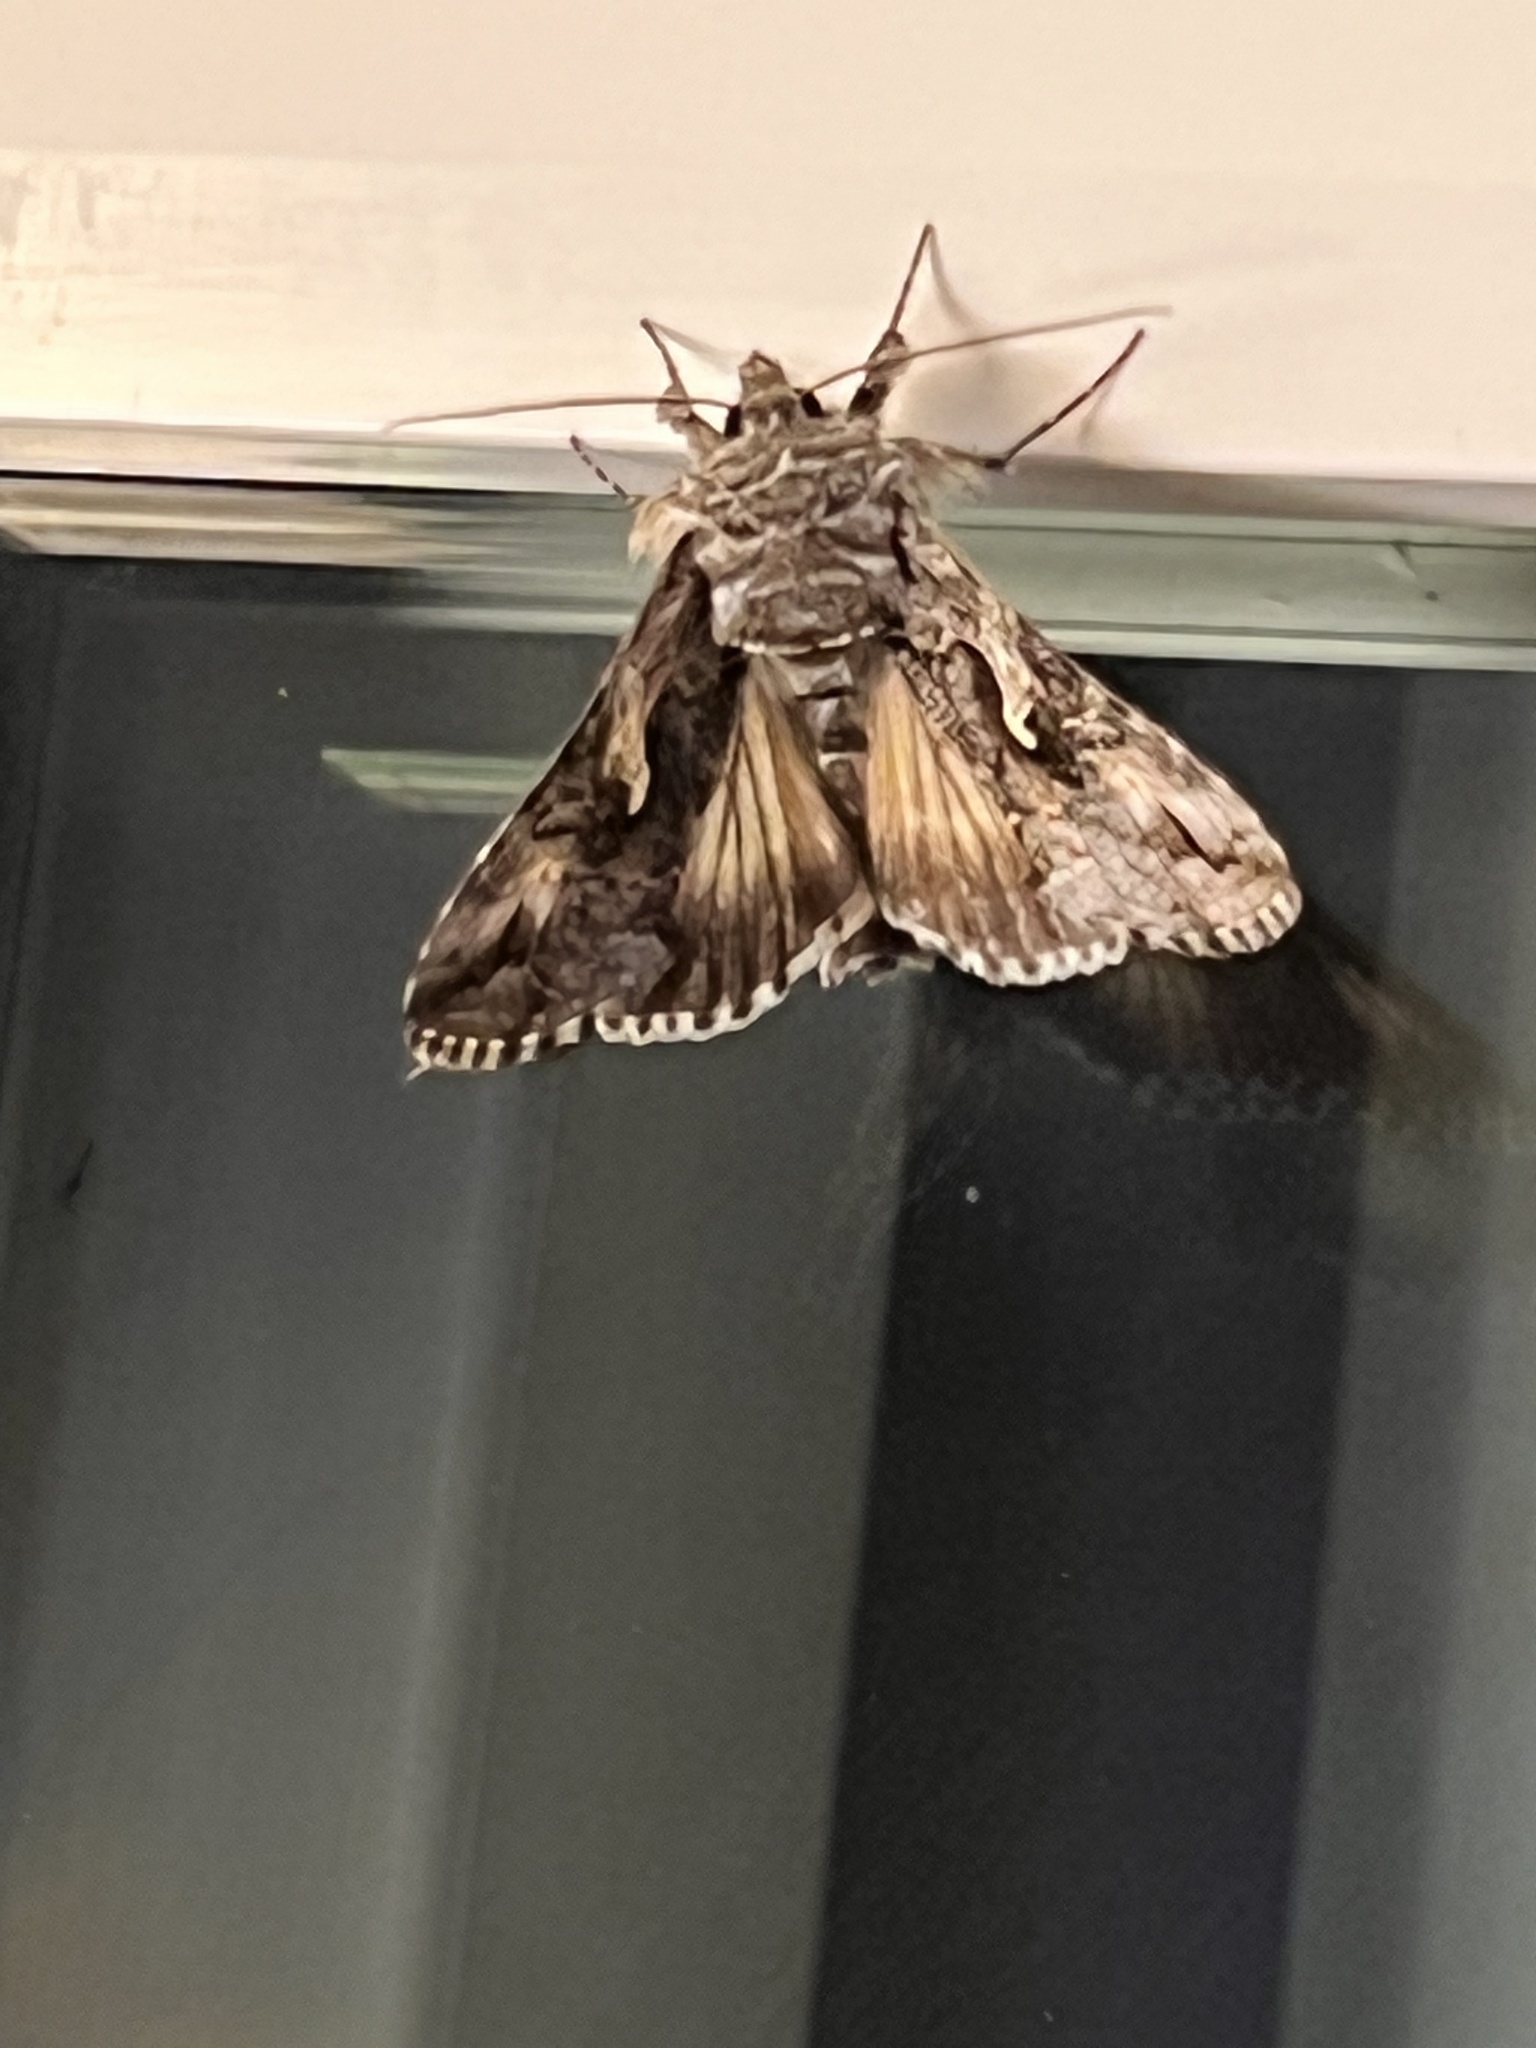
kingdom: Animalia
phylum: Arthropoda
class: Insecta
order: Lepidoptera
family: Noctuidae
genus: Autographa
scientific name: Autographa californica
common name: Alfalfa looper
